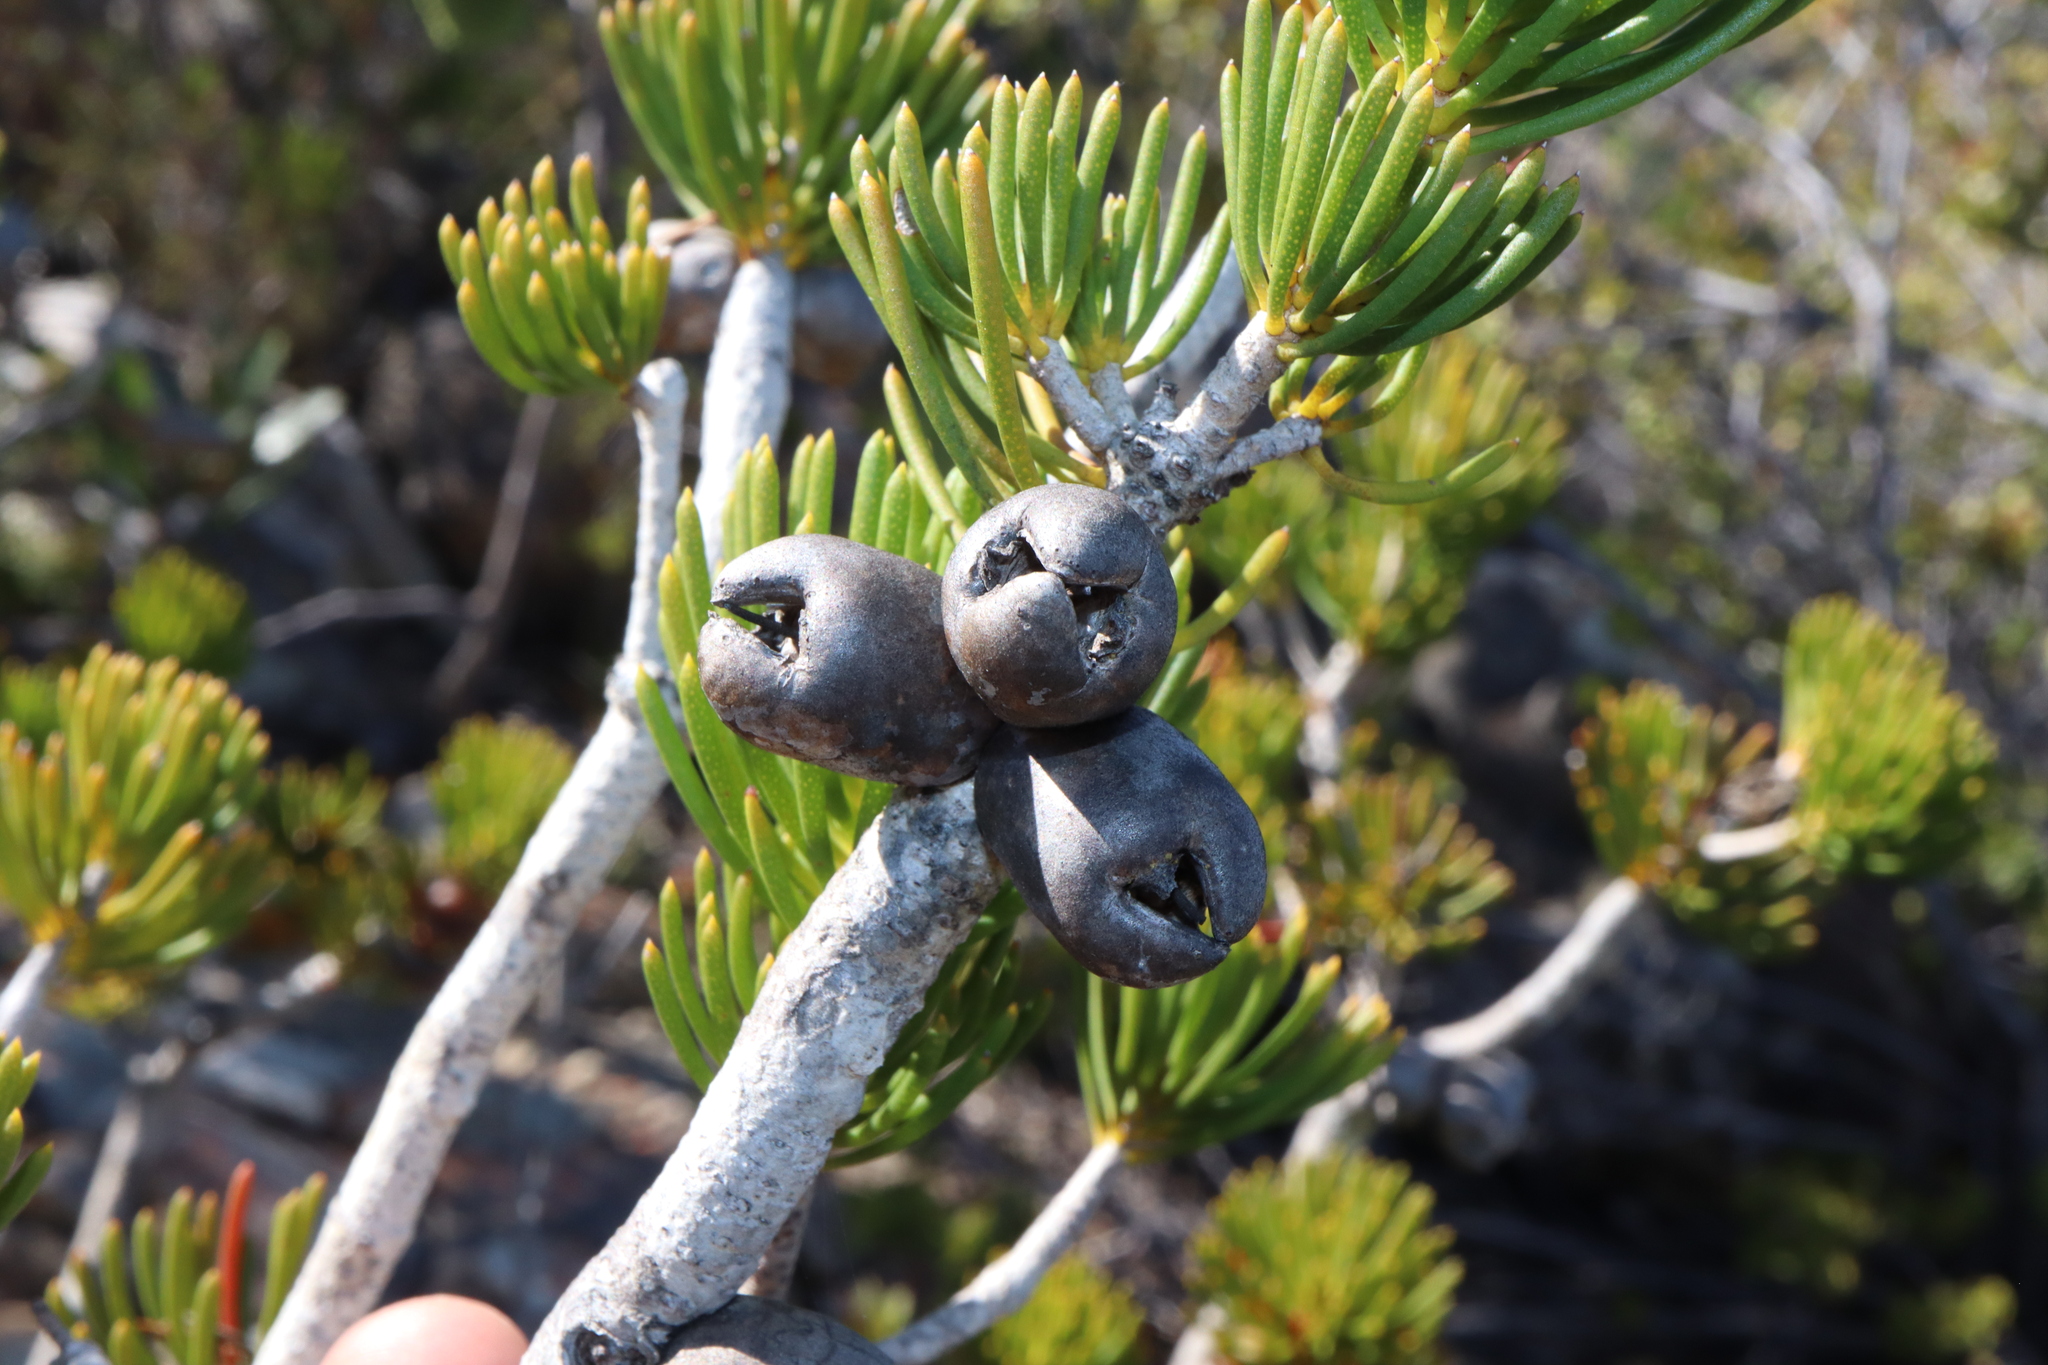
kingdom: Plantae
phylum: Tracheophyta
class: Magnoliopsida
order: Myrtales
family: Myrtaceae
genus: Melaleuca
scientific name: Melaleuca valida
